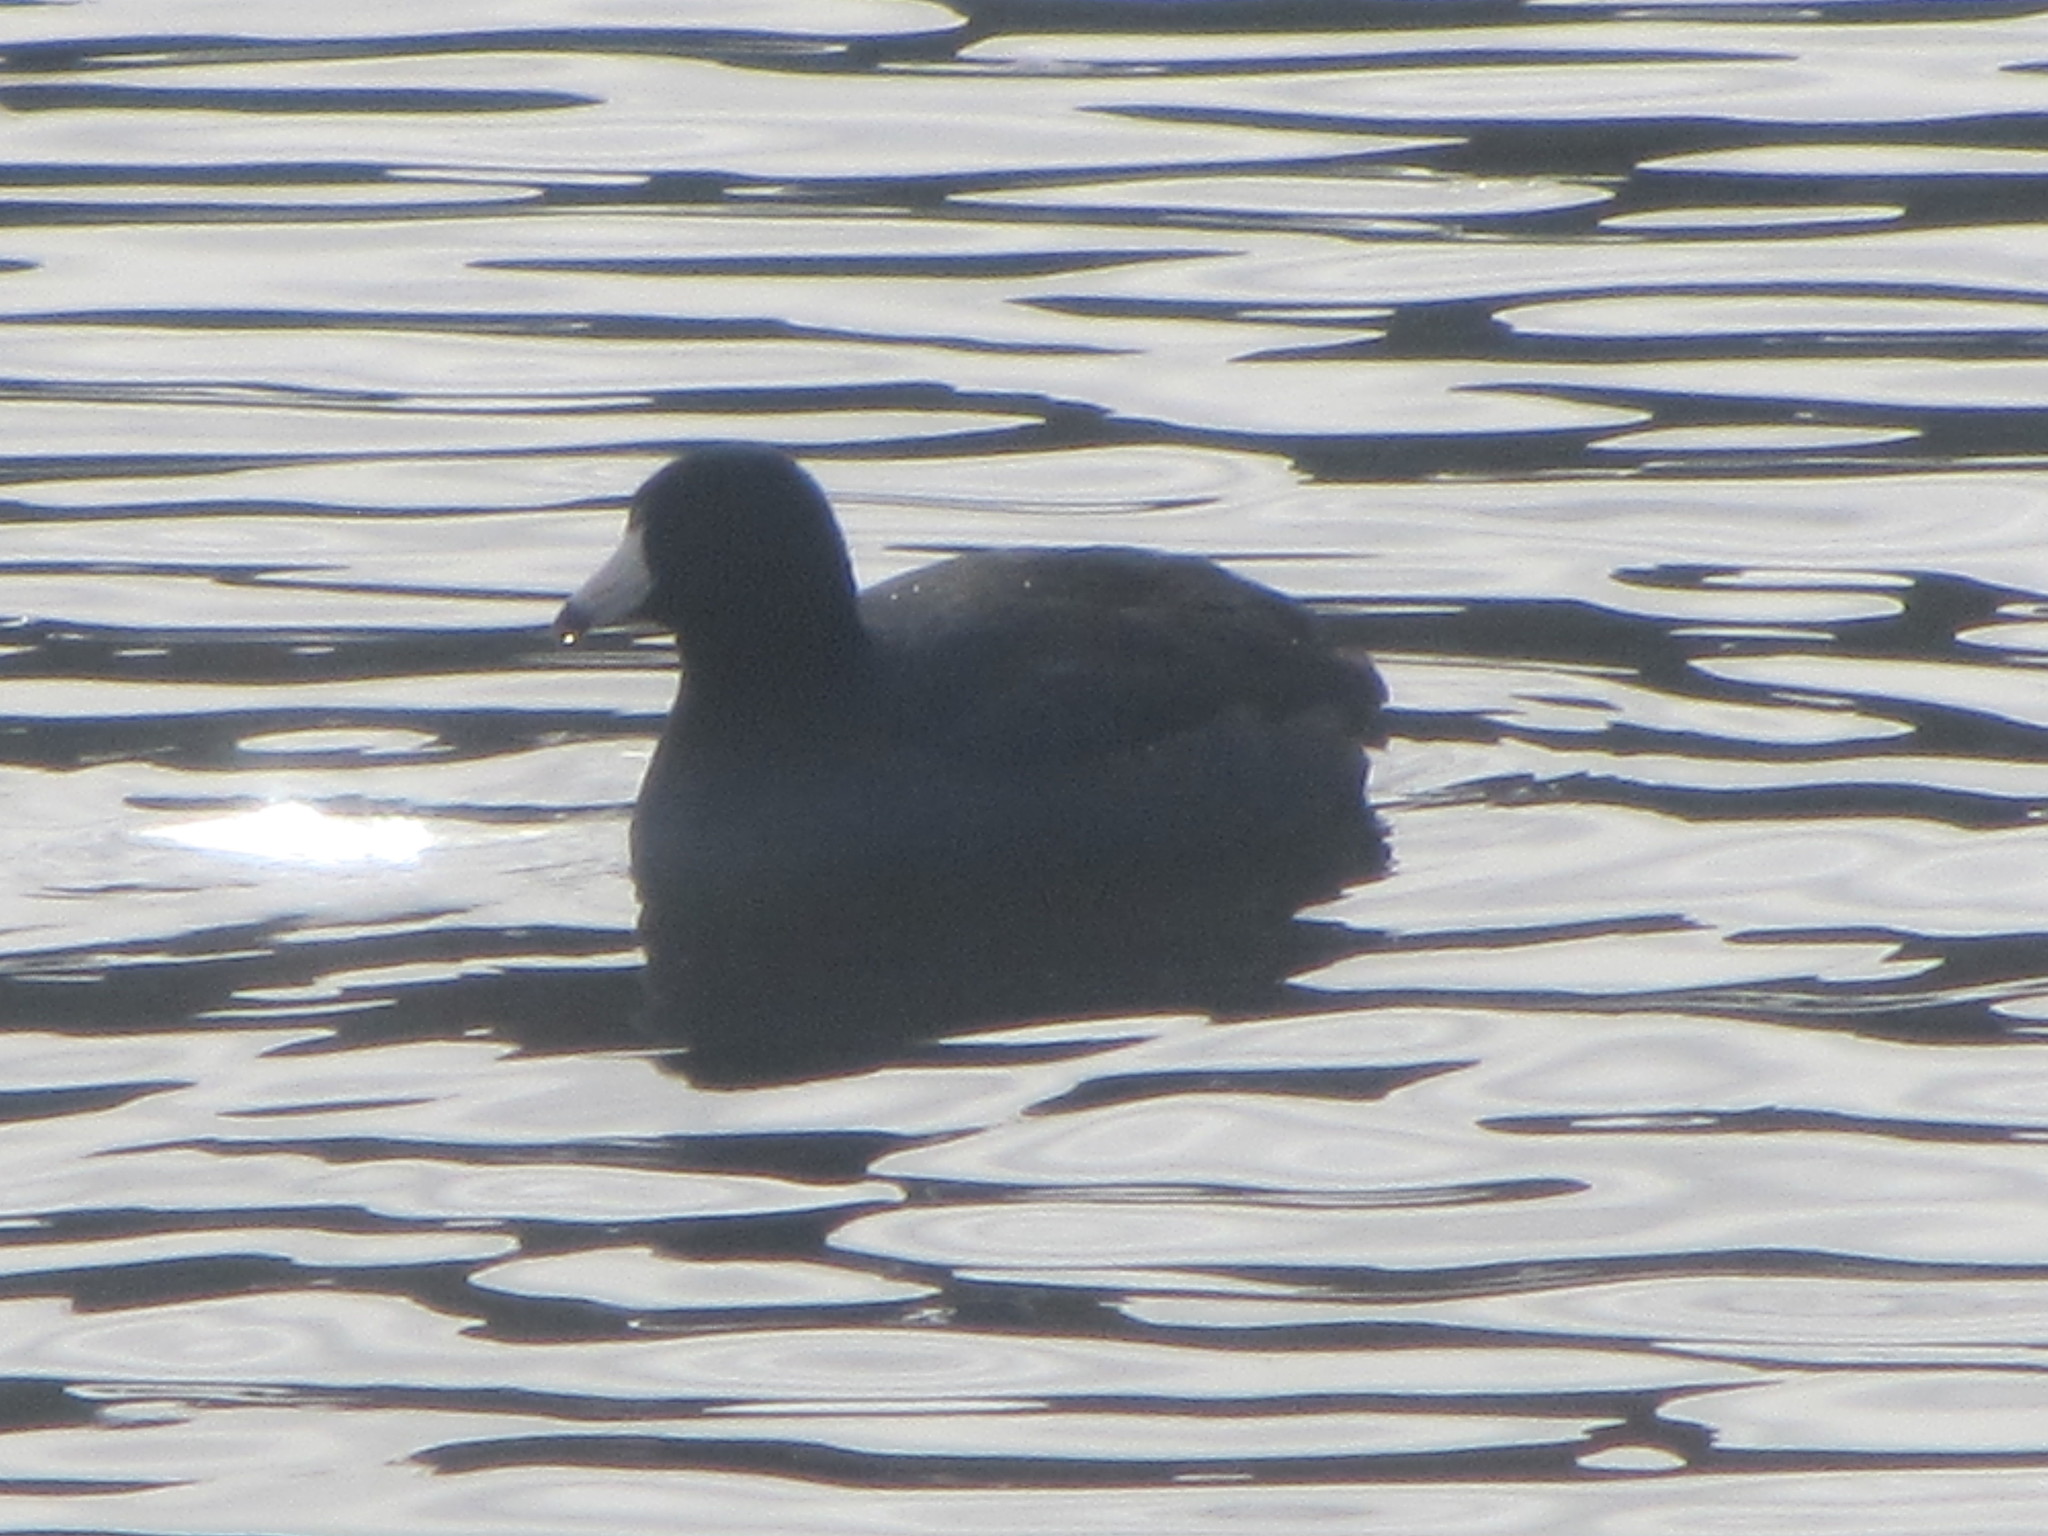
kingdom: Animalia
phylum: Chordata
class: Aves
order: Gruiformes
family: Rallidae
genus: Fulica
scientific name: Fulica americana
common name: American coot
